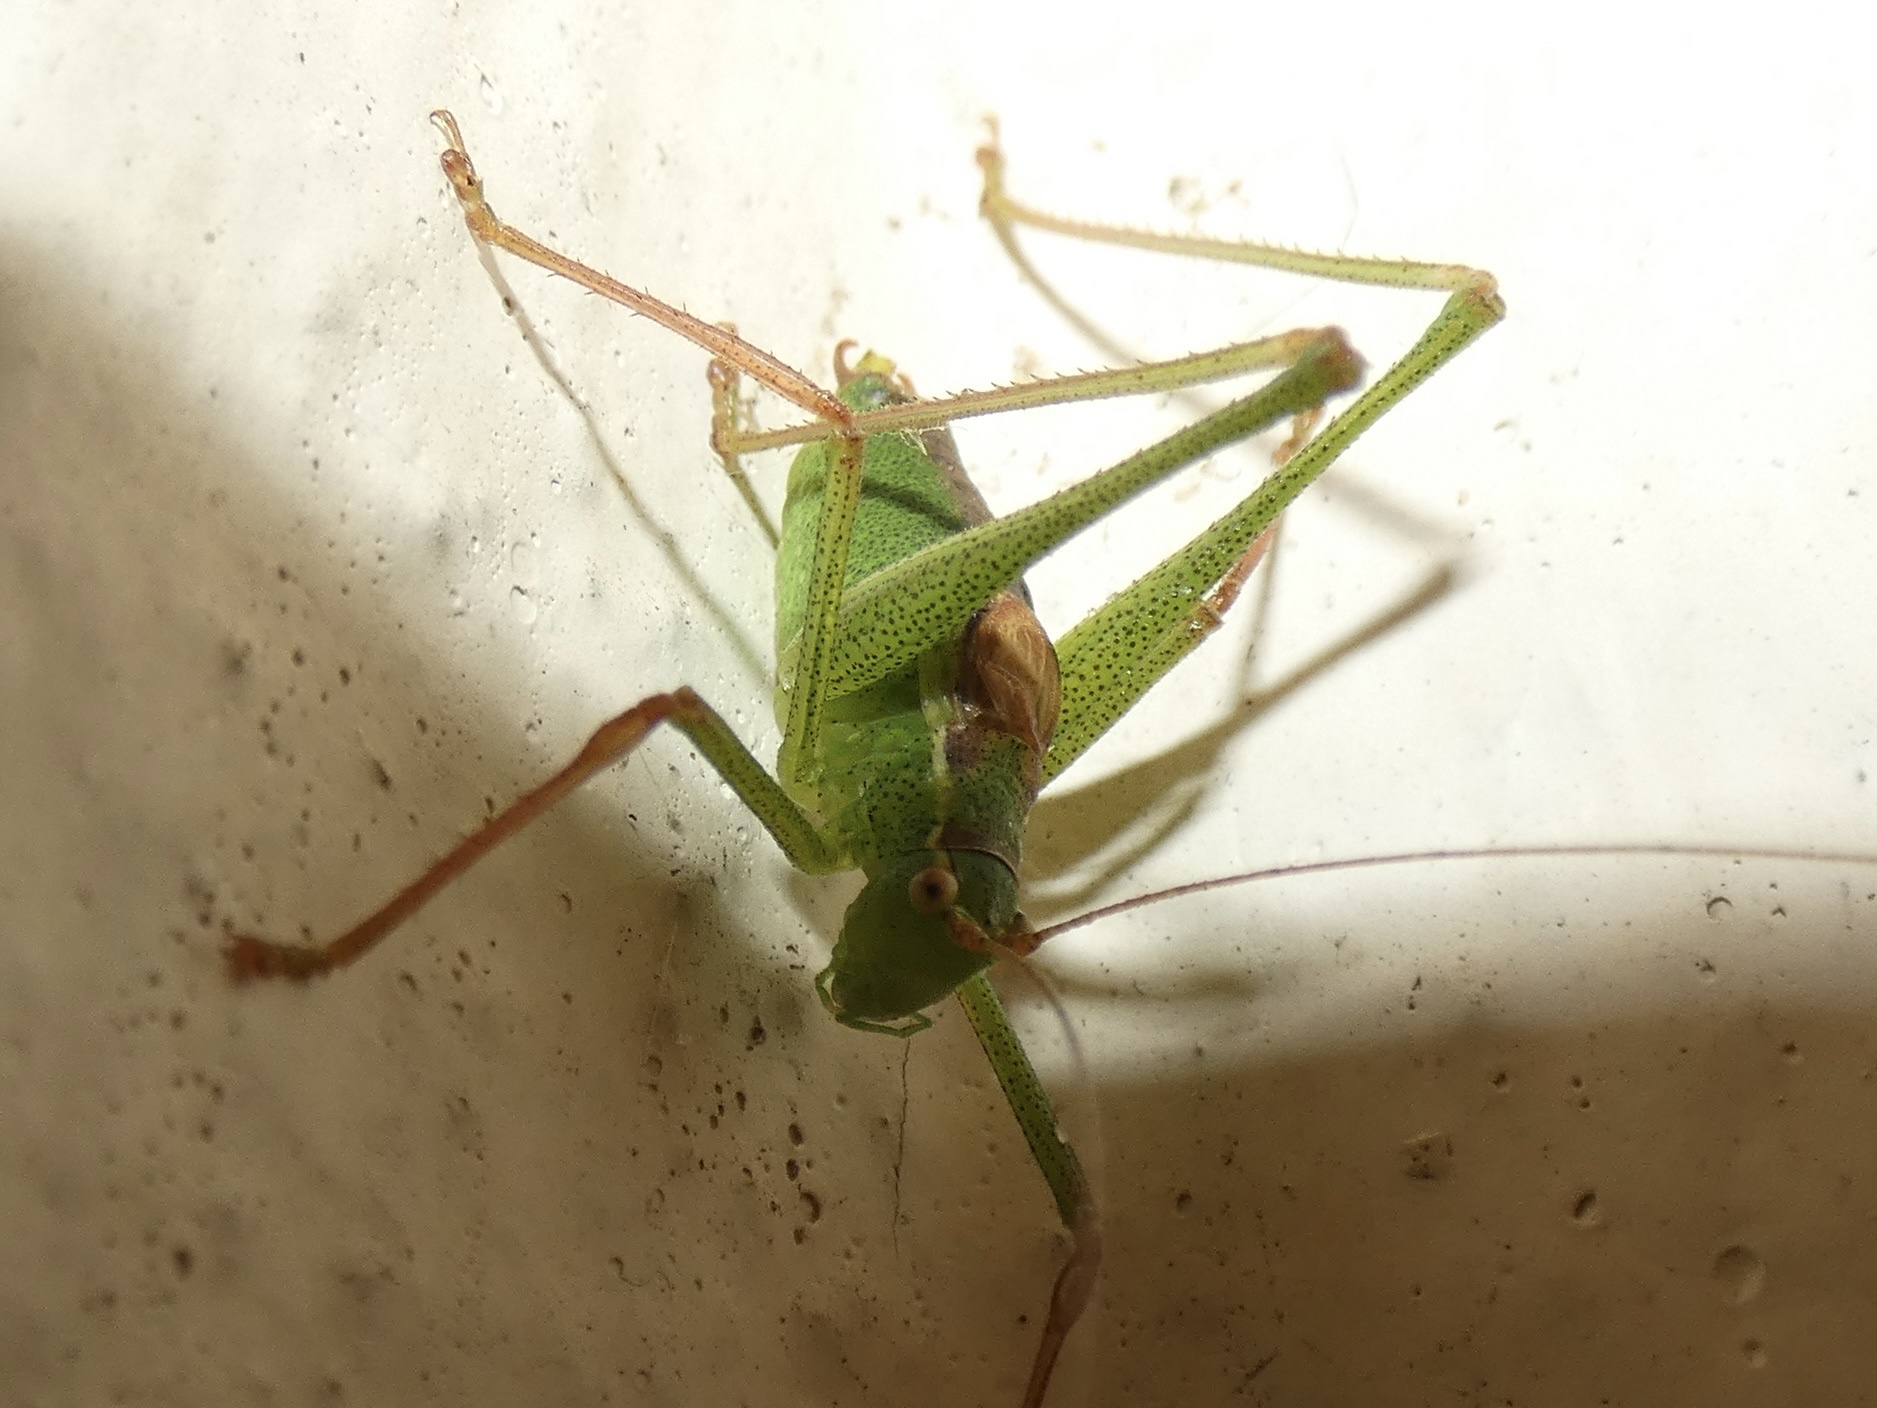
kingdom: Animalia
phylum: Arthropoda
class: Insecta
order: Orthoptera
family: Tettigoniidae
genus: Leptophyes
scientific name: Leptophyes punctatissima
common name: Speckled bush-cricket
